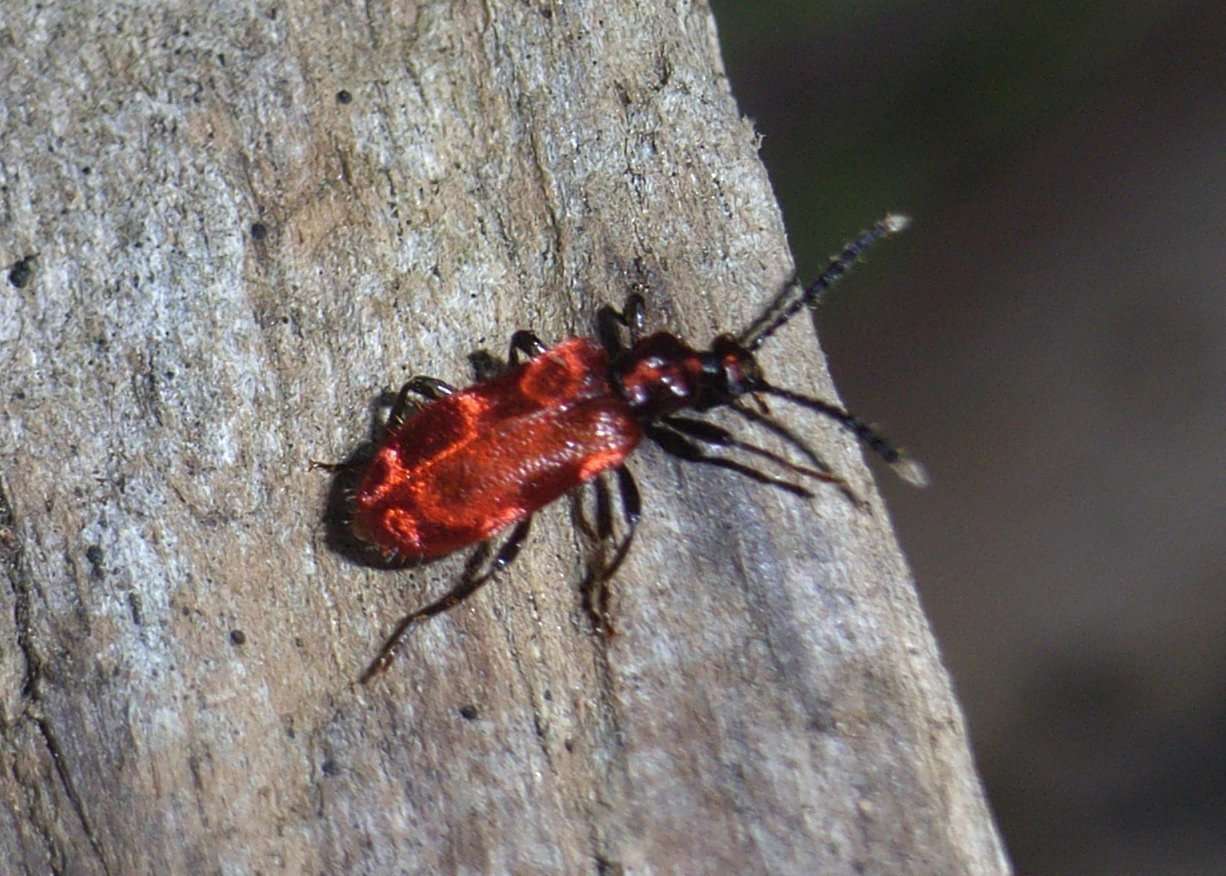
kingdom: Animalia
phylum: Arthropoda
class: Insecta
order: Coleoptera
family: Anthicidae
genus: Lemodes
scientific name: Lemodes
